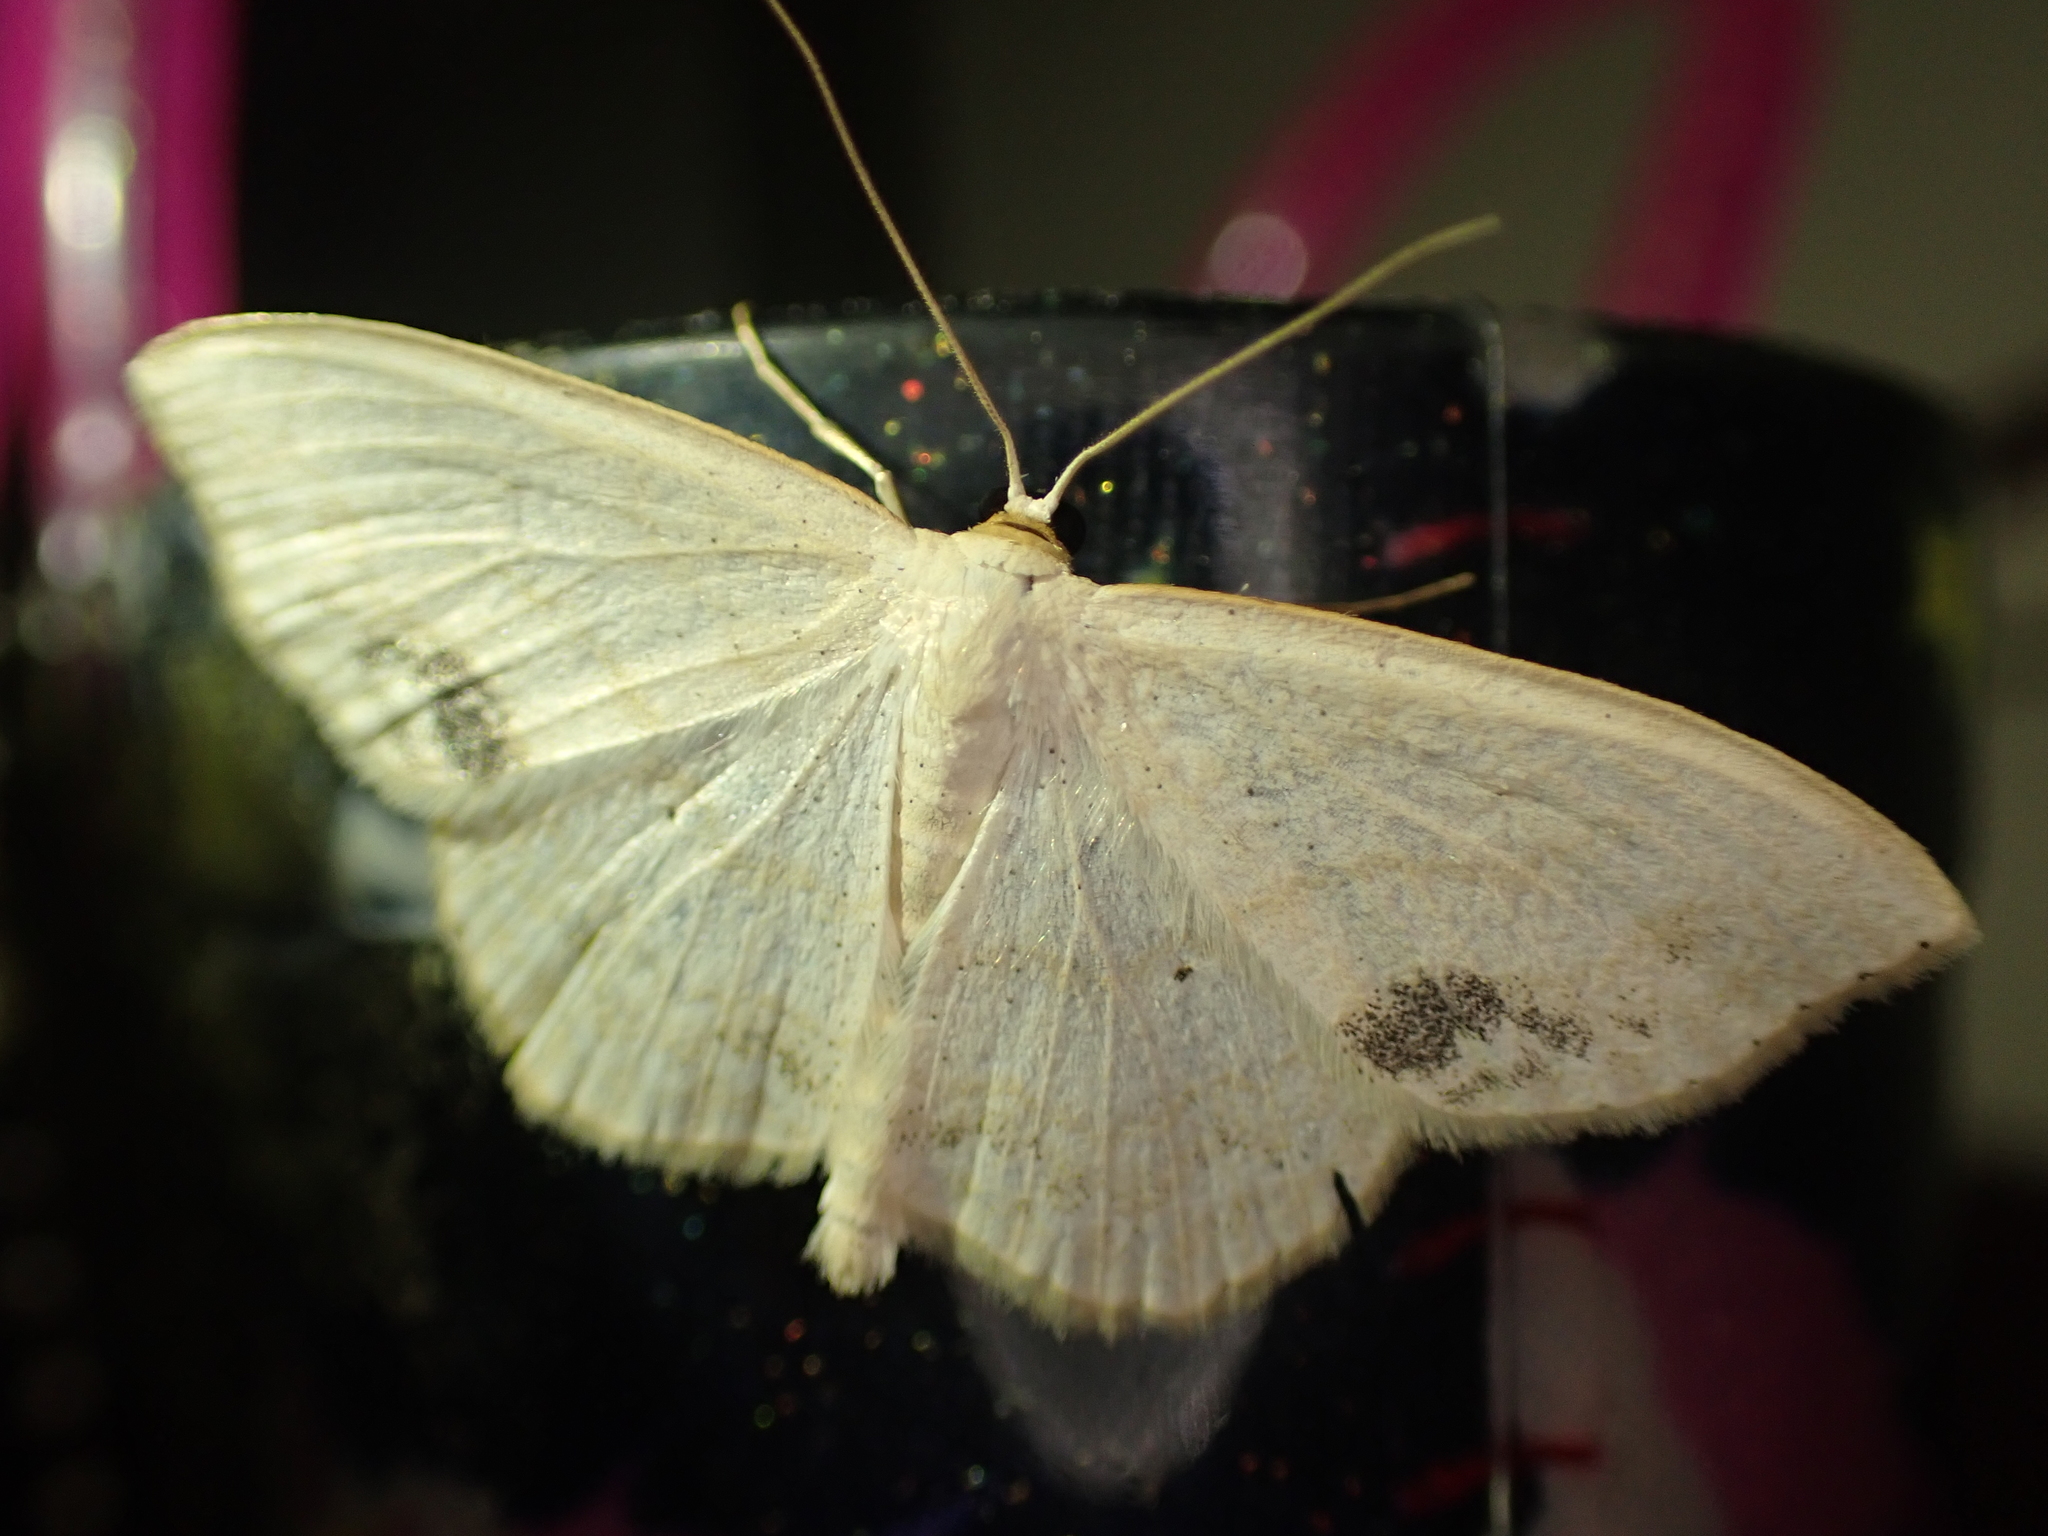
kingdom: Animalia
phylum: Arthropoda
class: Insecta
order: Lepidoptera
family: Geometridae
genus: Scopula
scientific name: Scopula limboundata
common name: Large lace border
